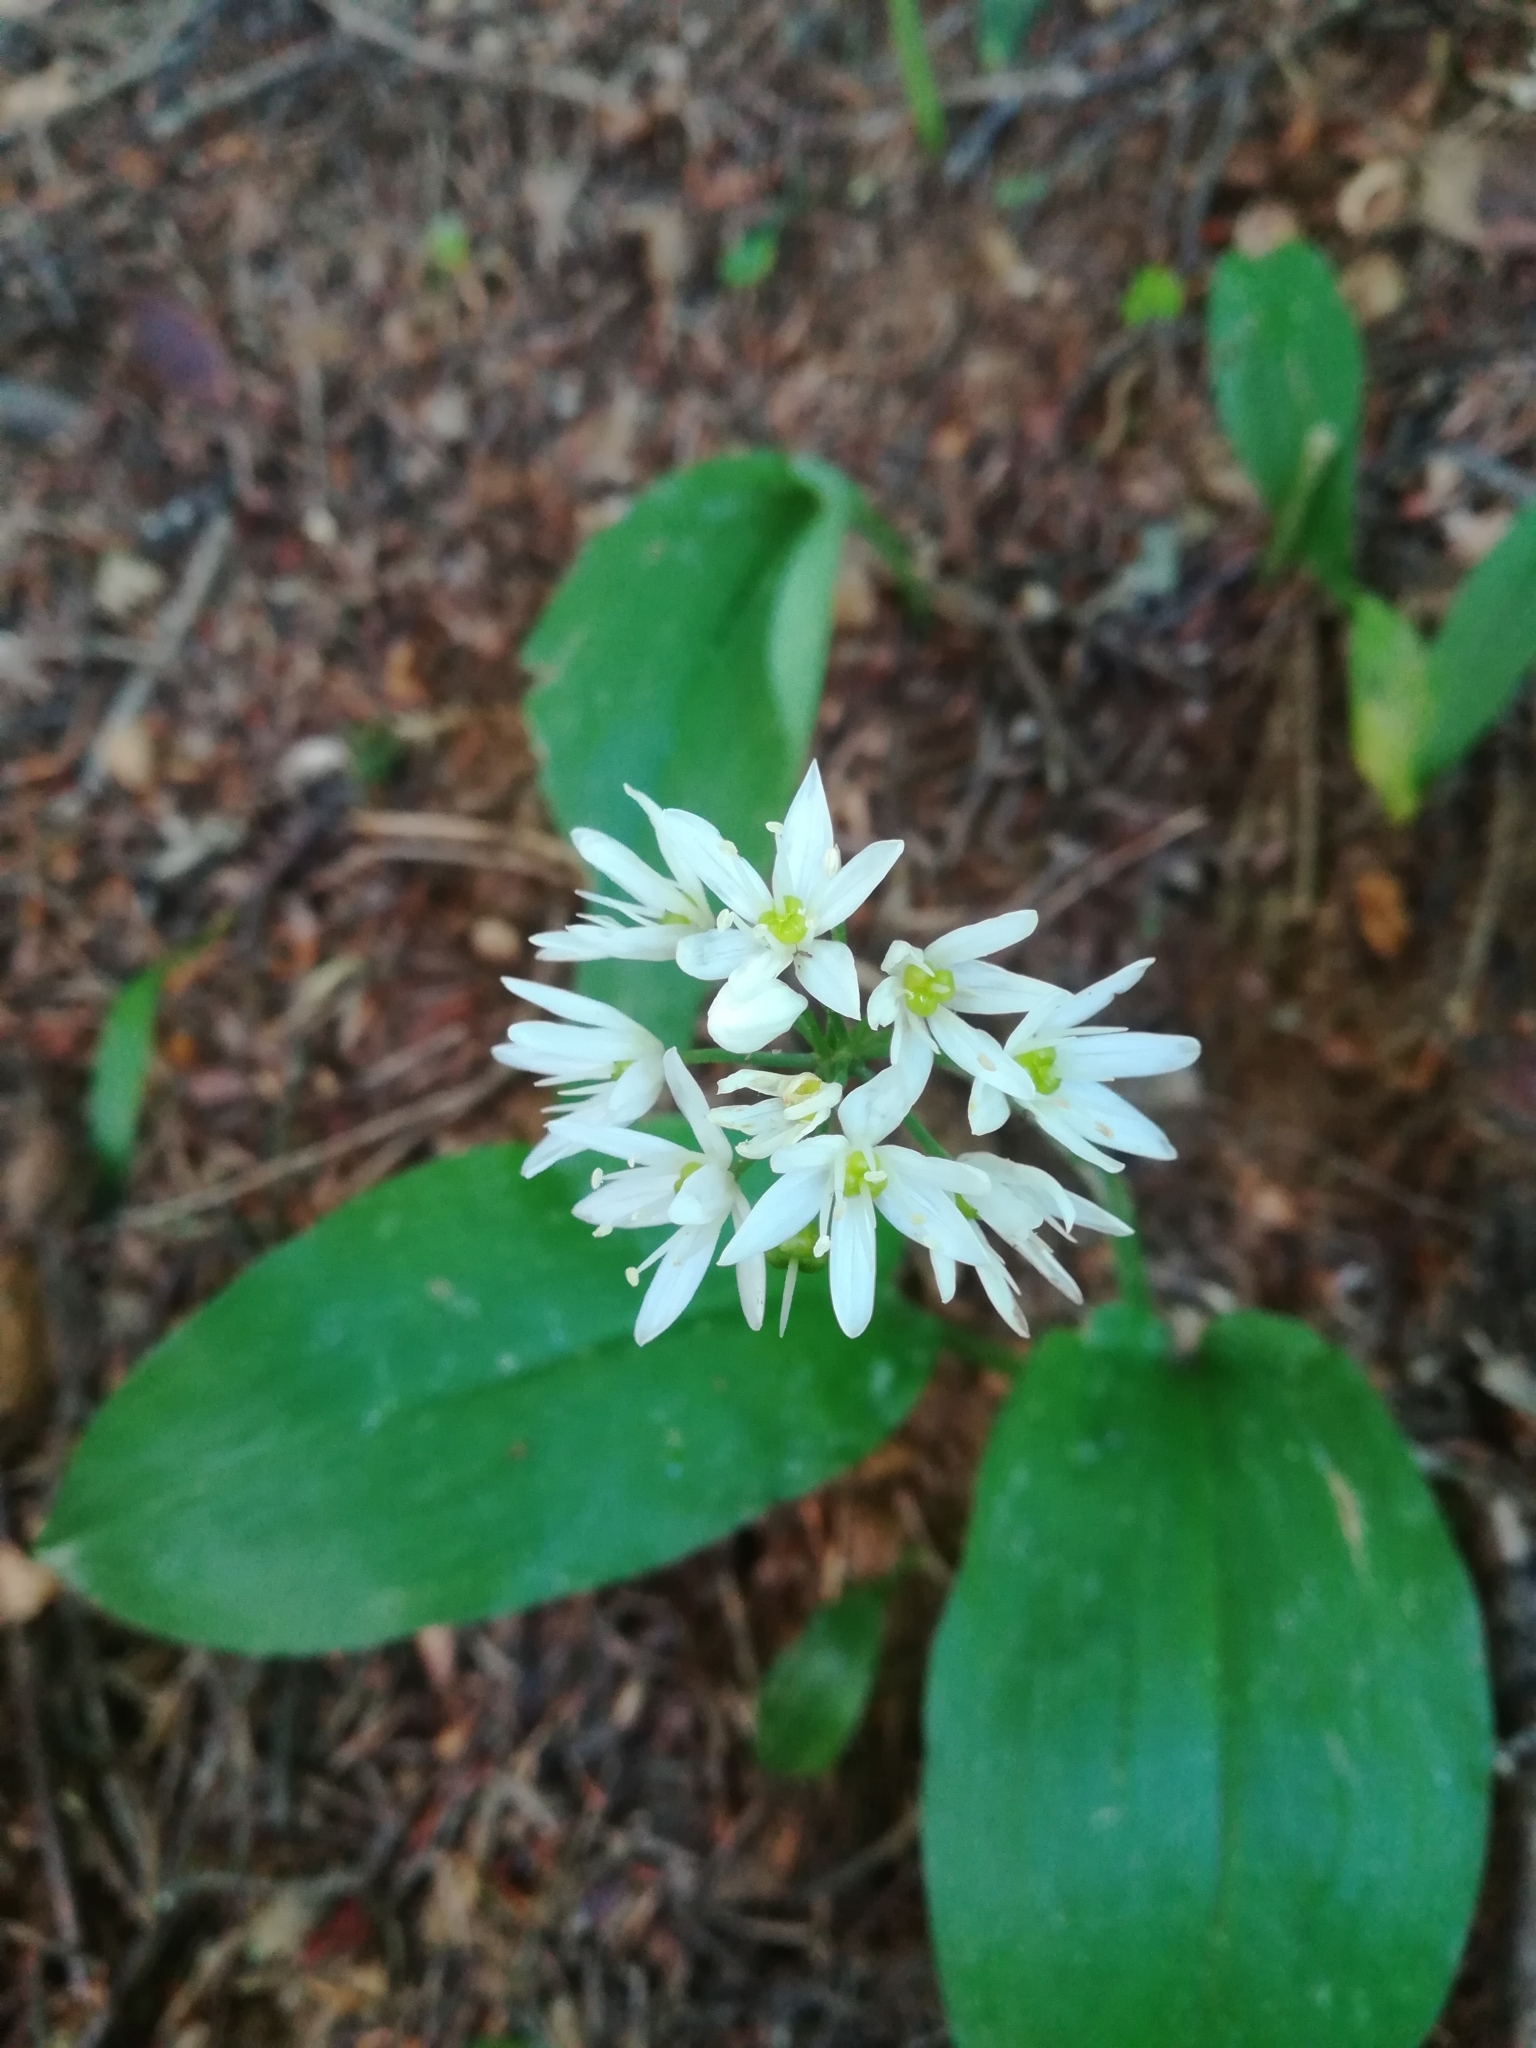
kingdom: Plantae
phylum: Tracheophyta
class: Liliopsida
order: Asparagales
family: Amaryllidaceae
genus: Allium
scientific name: Allium ursinum
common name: Ramsons
